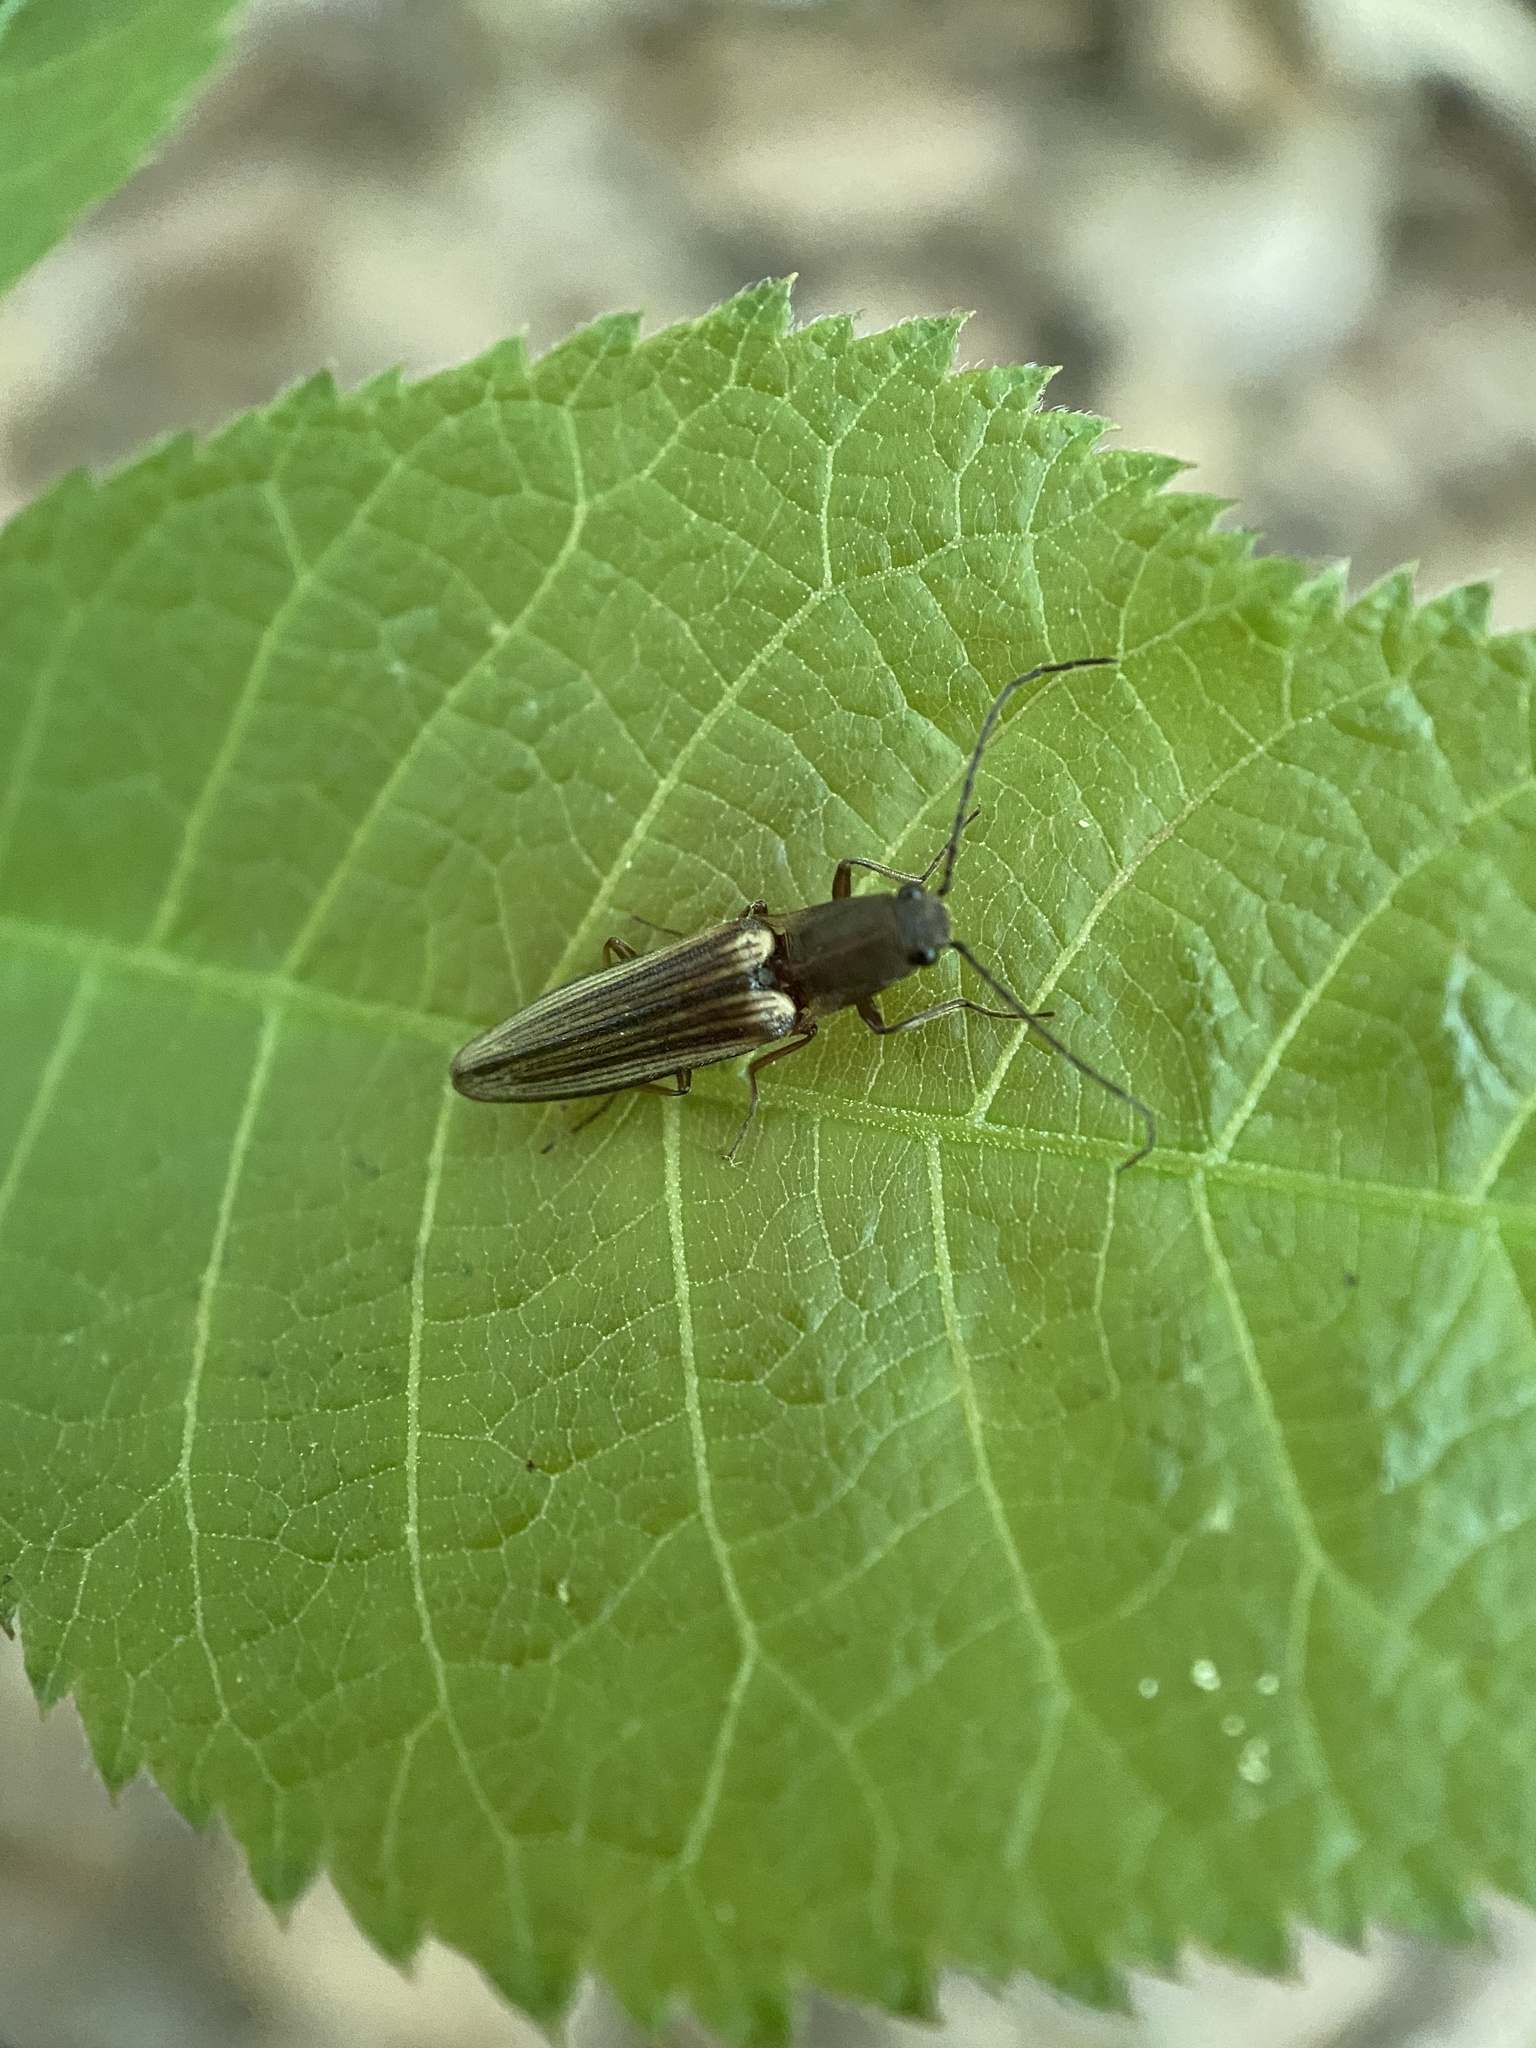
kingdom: Animalia
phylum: Arthropoda
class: Insecta
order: Coleoptera
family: Elateridae
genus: Euplastius
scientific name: Euplastius
